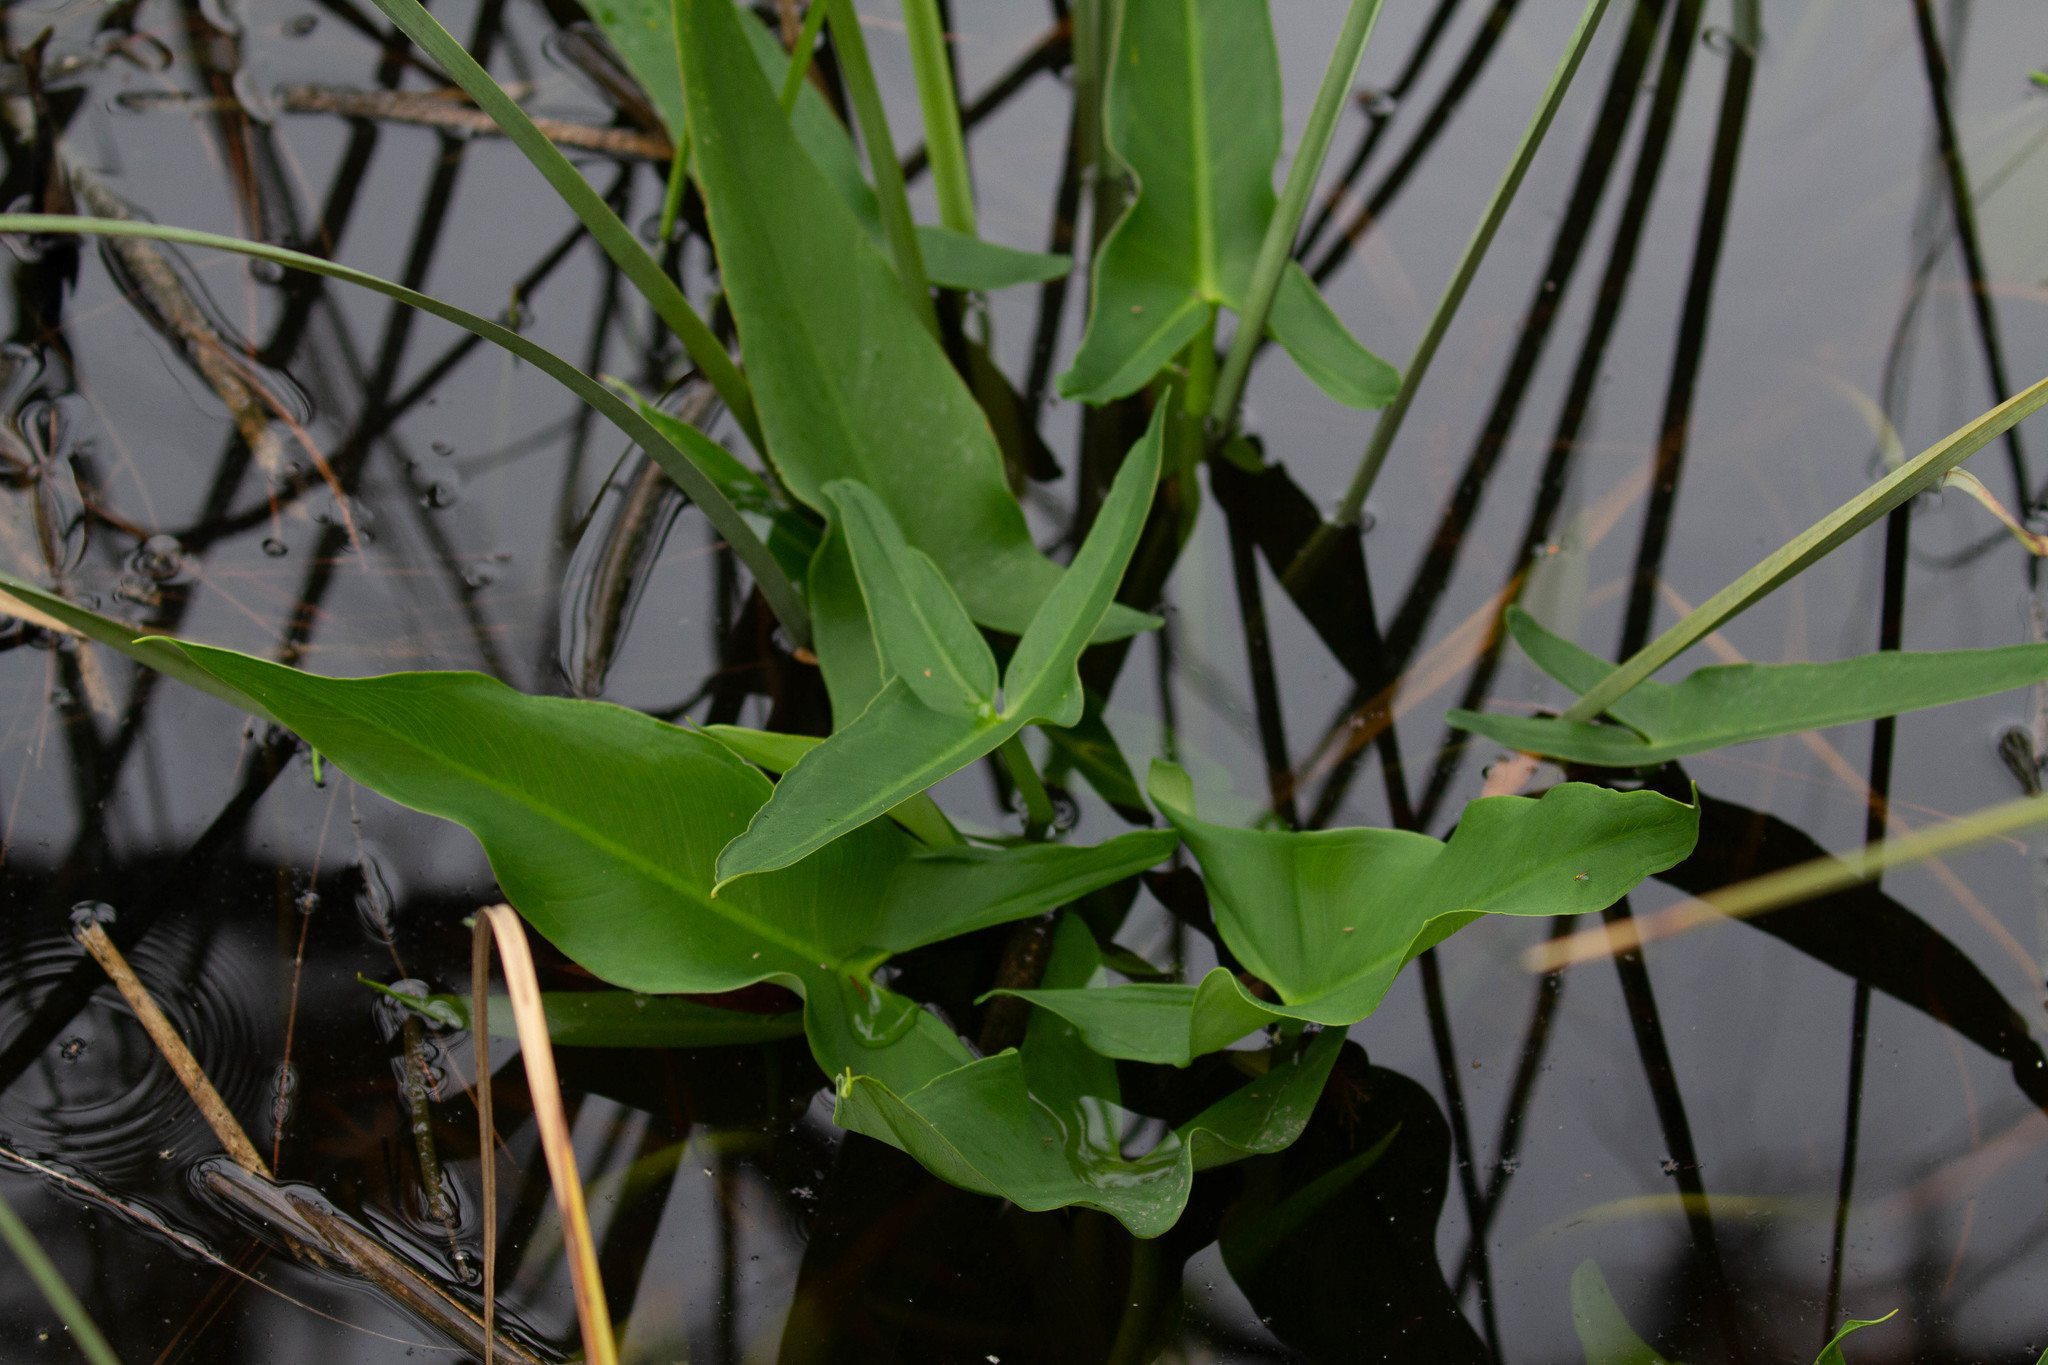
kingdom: Plantae
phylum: Tracheophyta
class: Liliopsida
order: Alismatales
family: Araceae
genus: Peltandra
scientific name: Peltandra virginica
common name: Arrow arum
